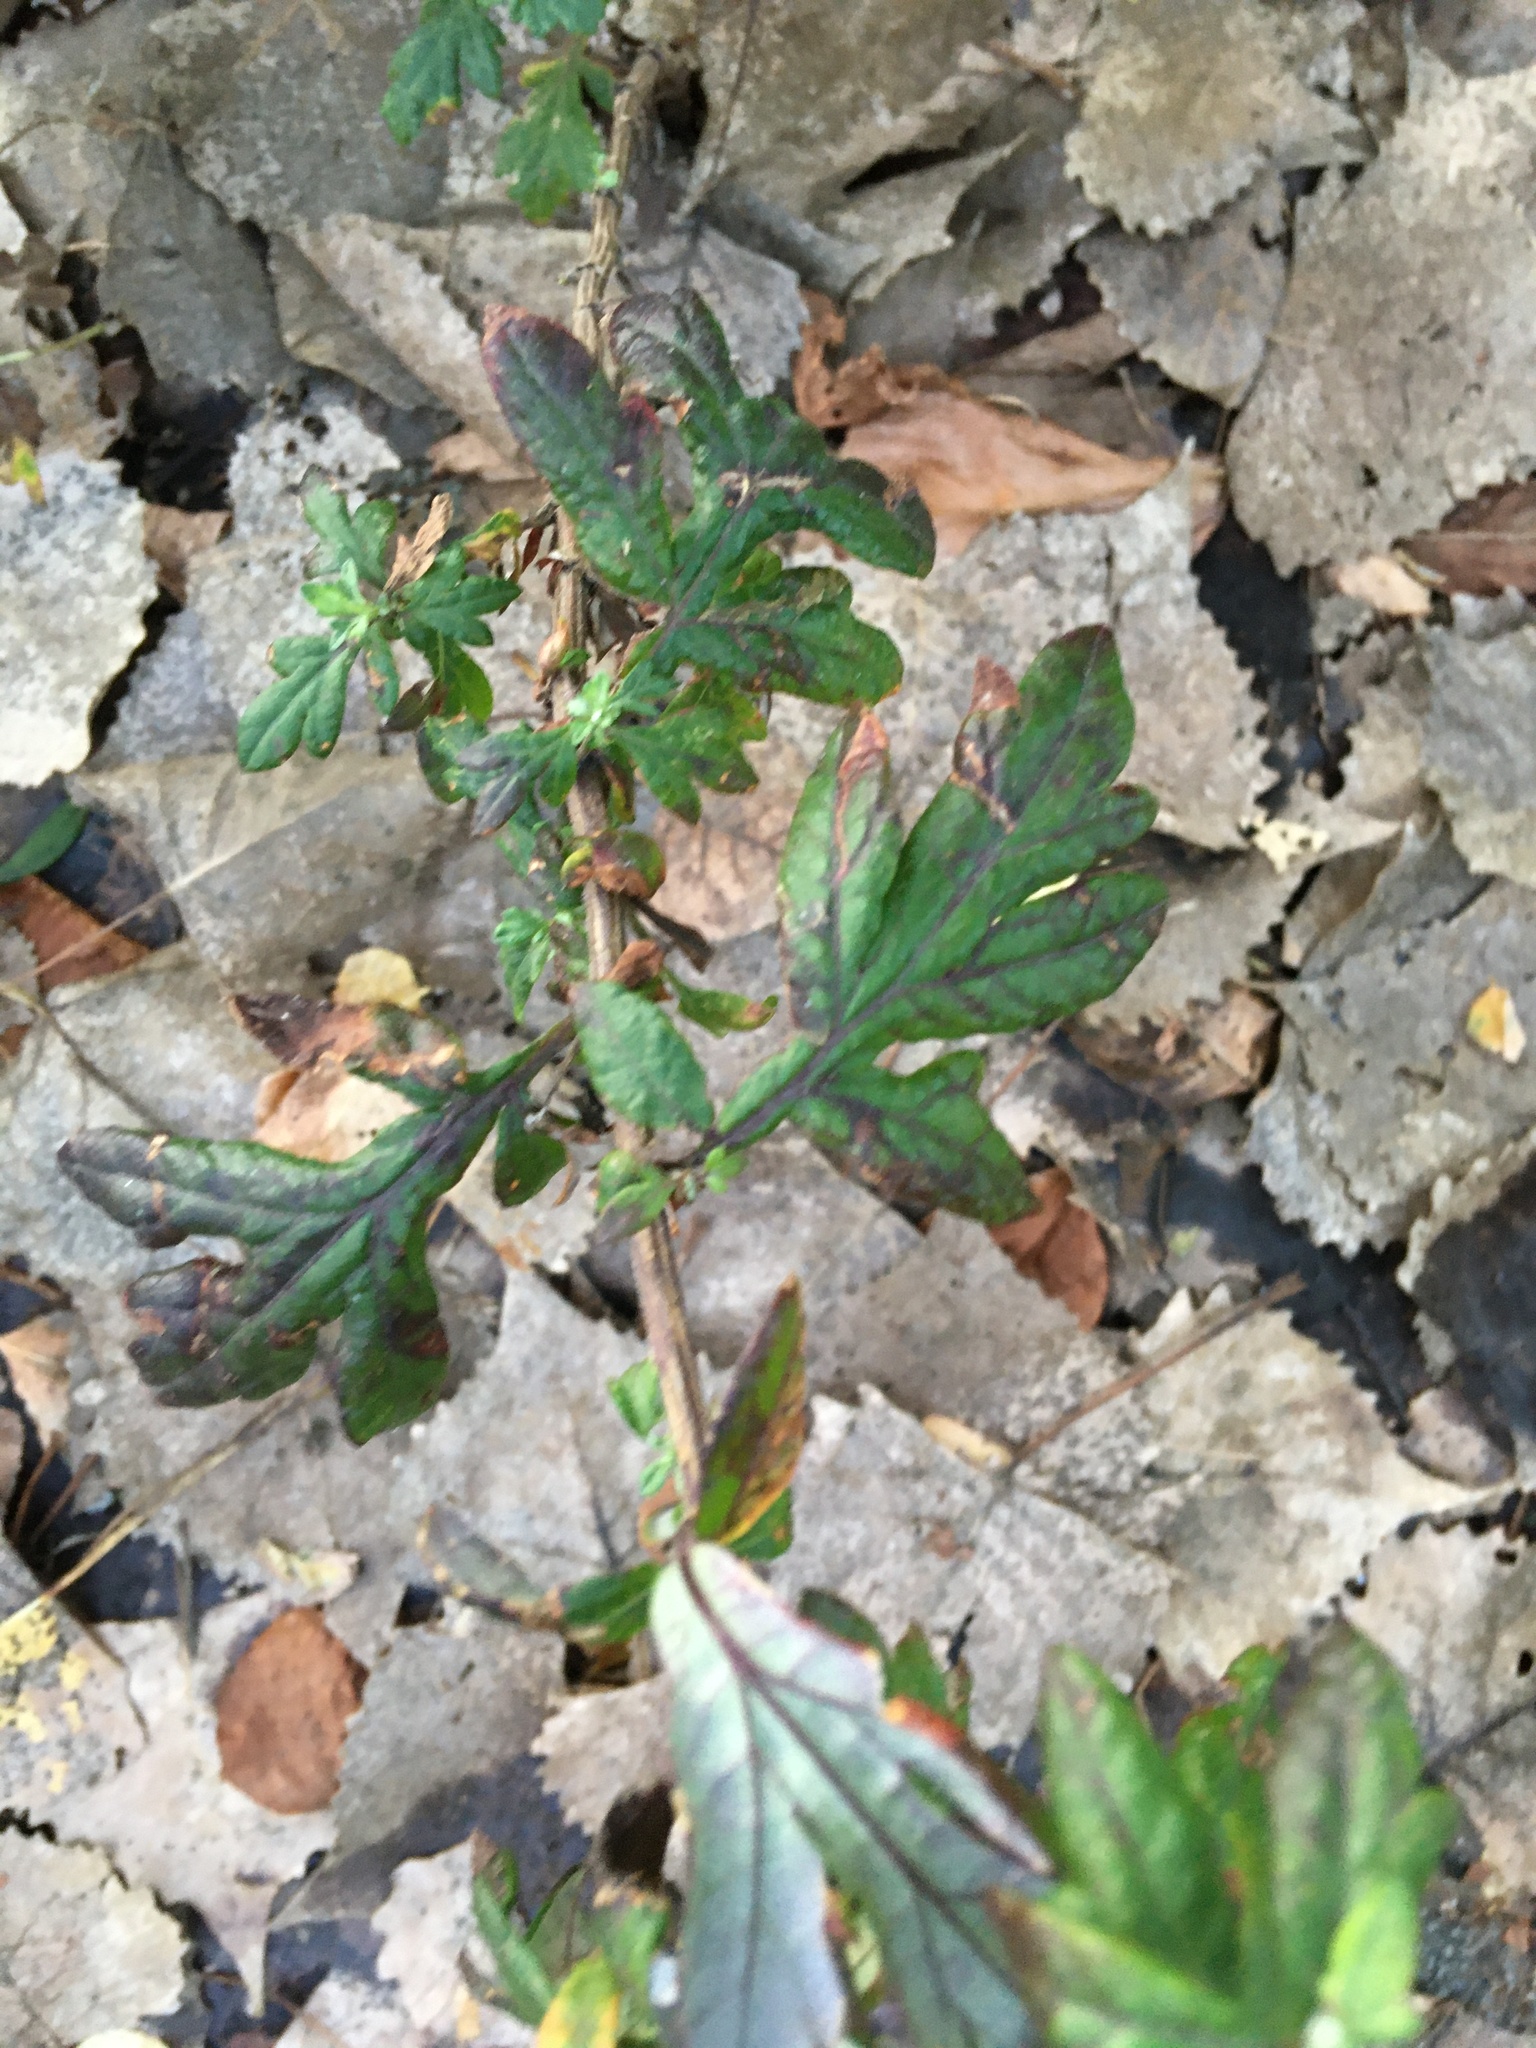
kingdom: Plantae
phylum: Tracheophyta
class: Magnoliopsida
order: Asterales
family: Asteraceae
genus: Artemisia
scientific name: Artemisia vulgaris
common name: Mugwort
